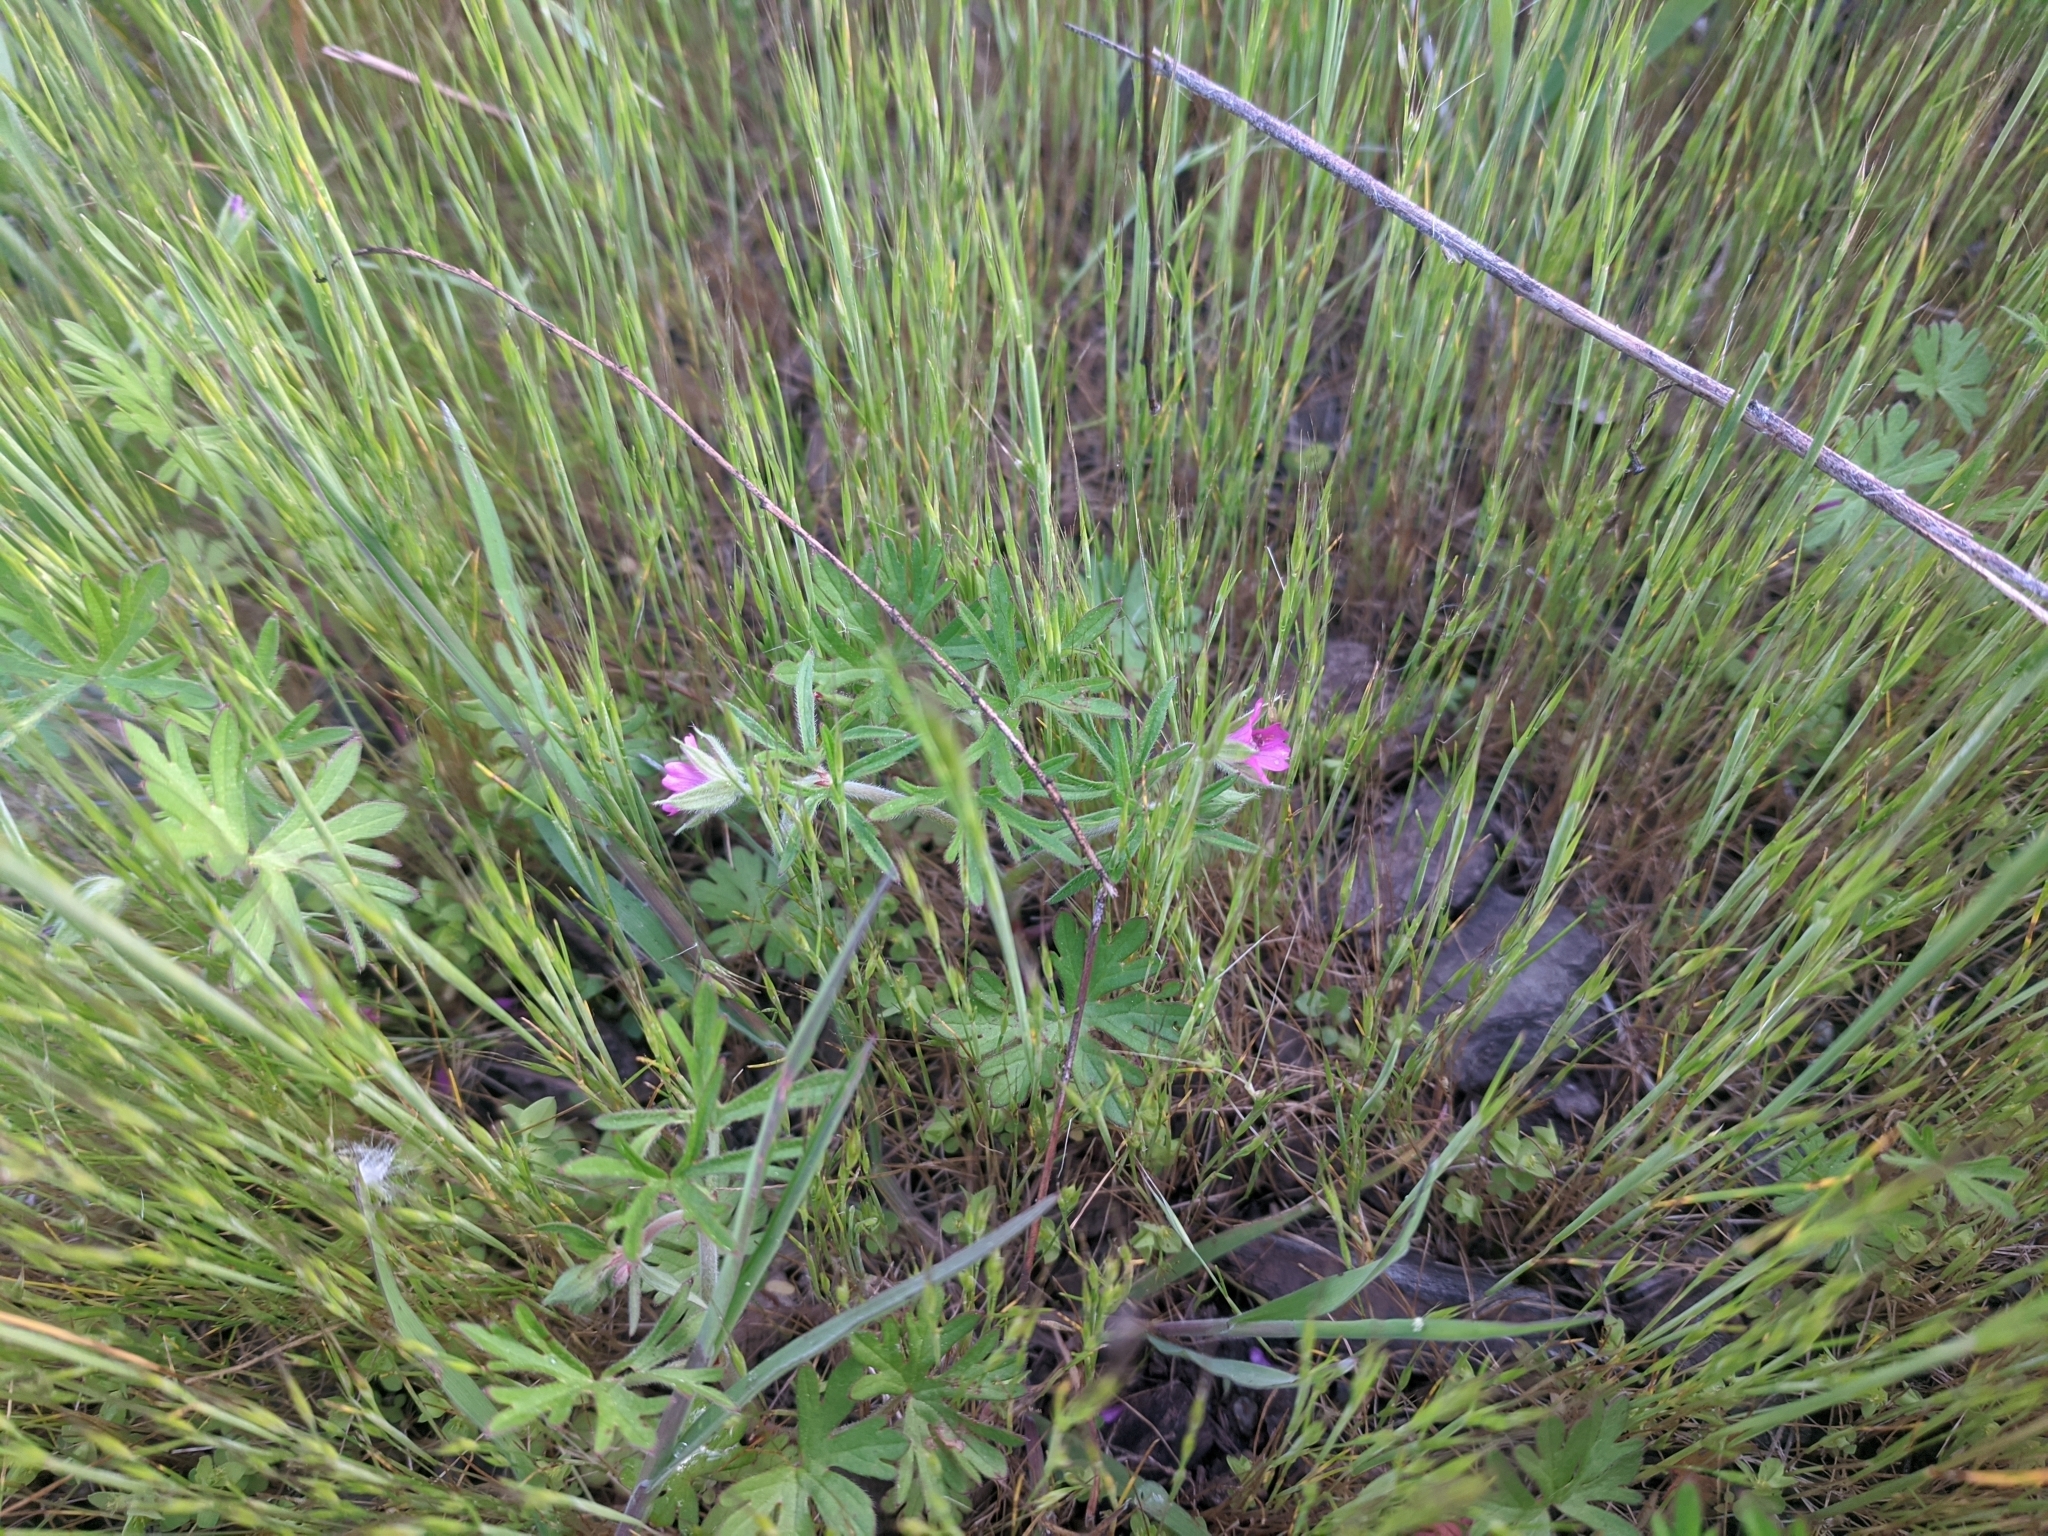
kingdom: Plantae
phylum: Tracheophyta
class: Magnoliopsida
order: Geraniales
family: Geraniaceae
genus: Geranium
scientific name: Geranium dissectum
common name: Cut-leaved crane's-bill
